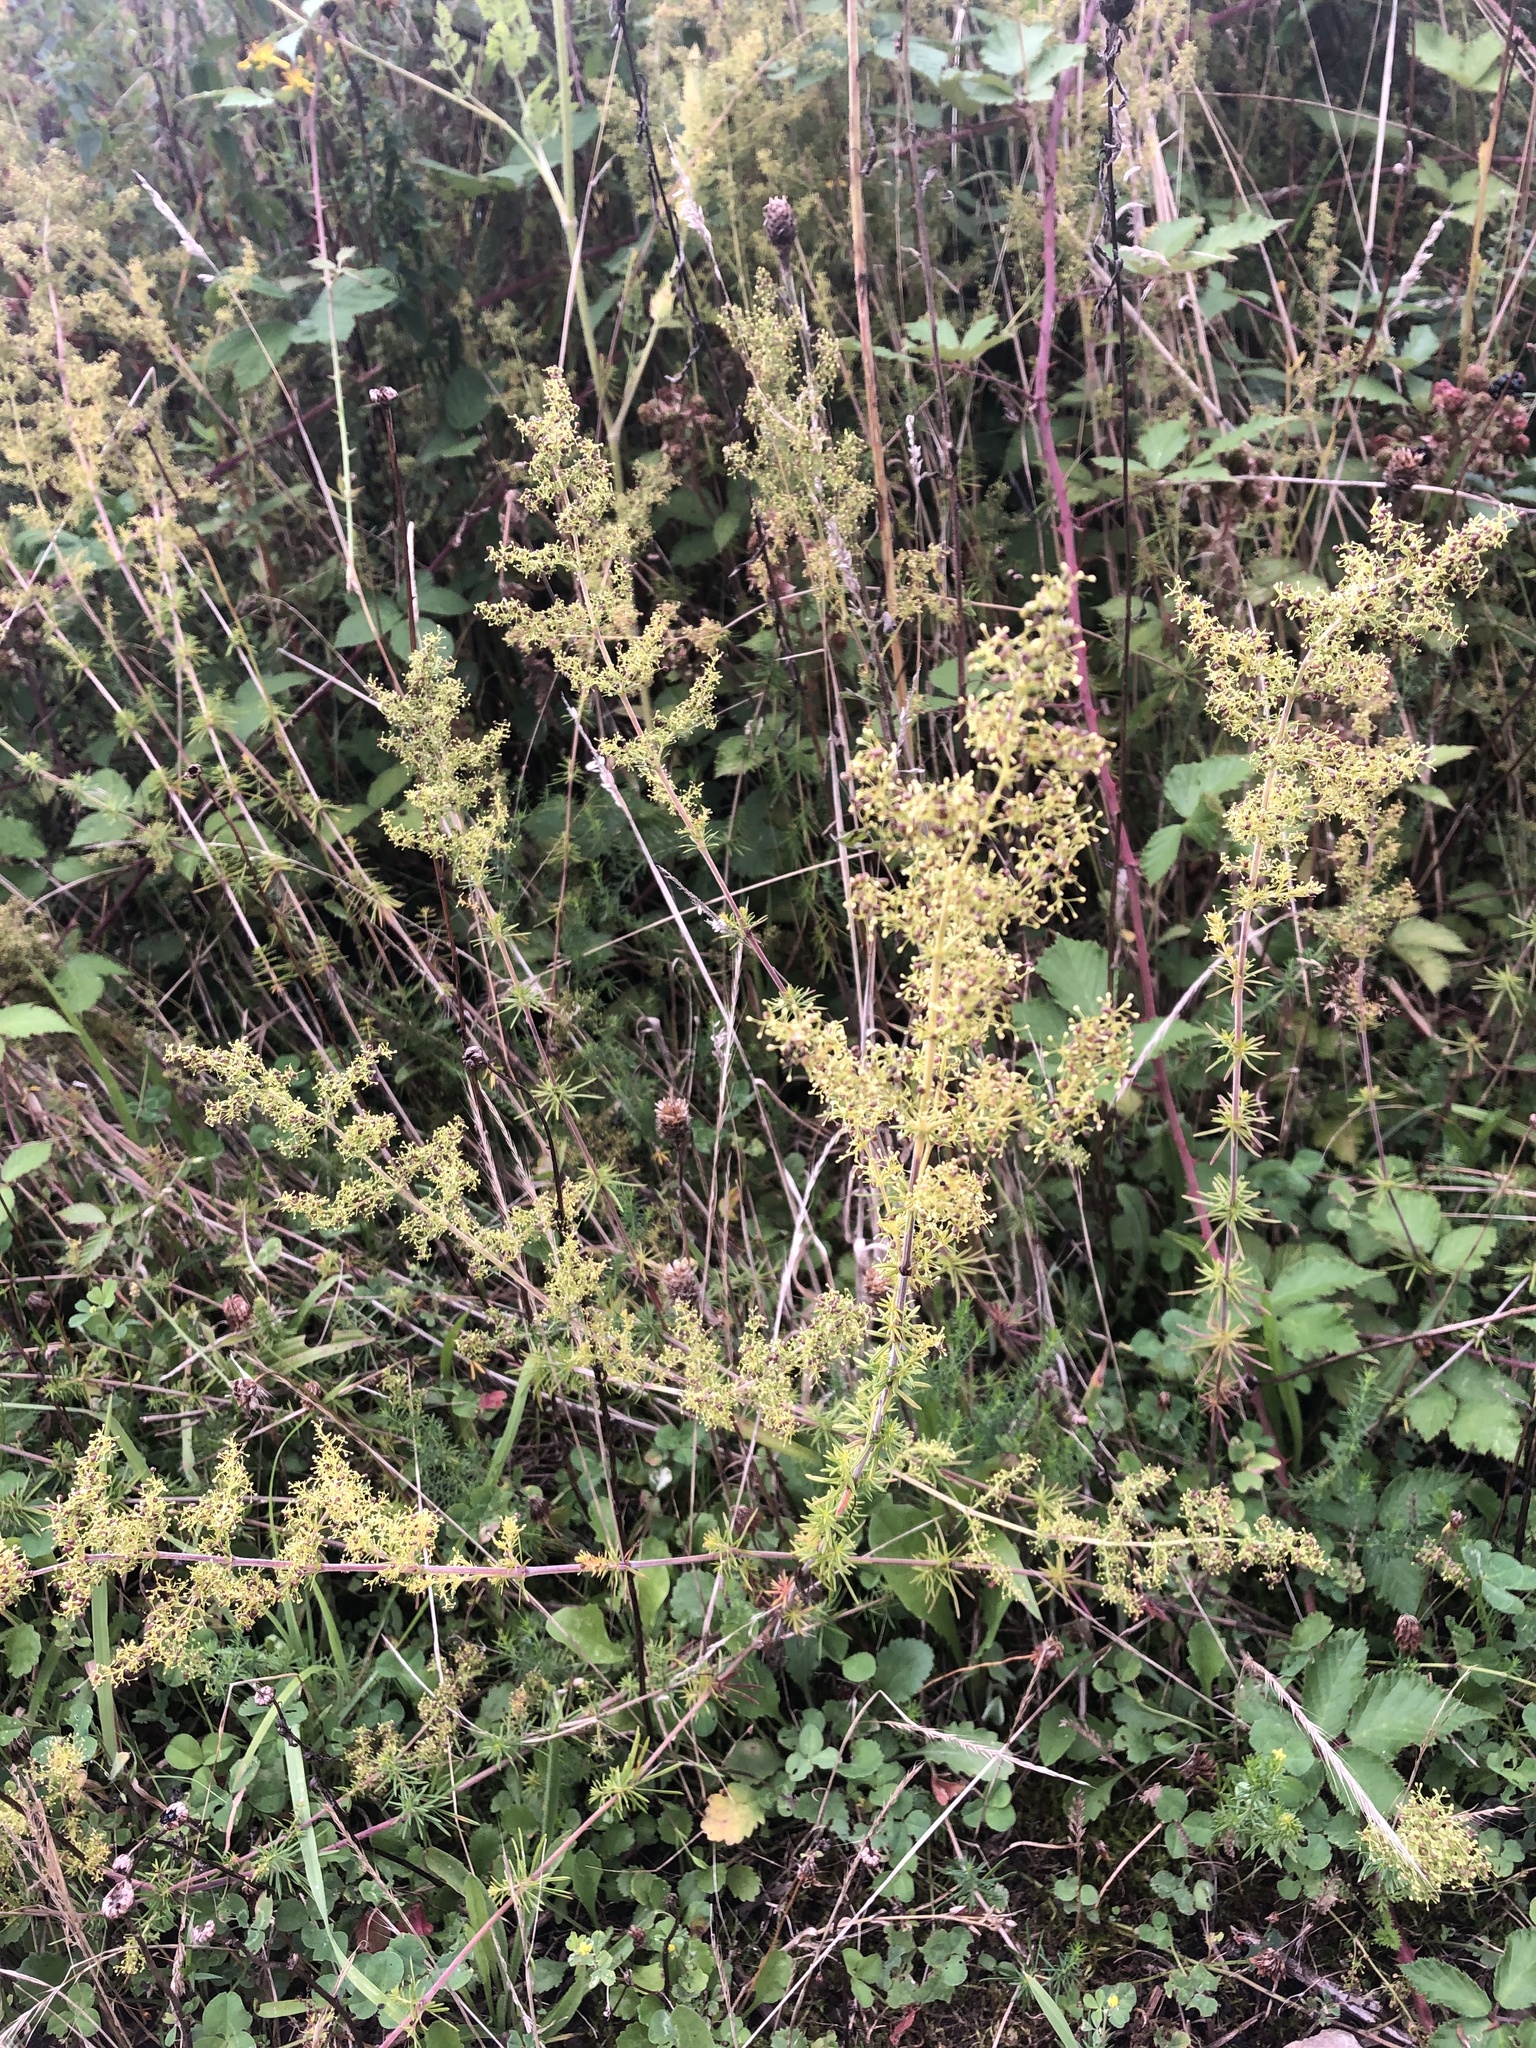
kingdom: Plantae
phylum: Tracheophyta
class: Magnoliopsida
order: Gentianales
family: Rubiaceae
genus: Galium
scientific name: Galium verum
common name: Lady's bedstraw
